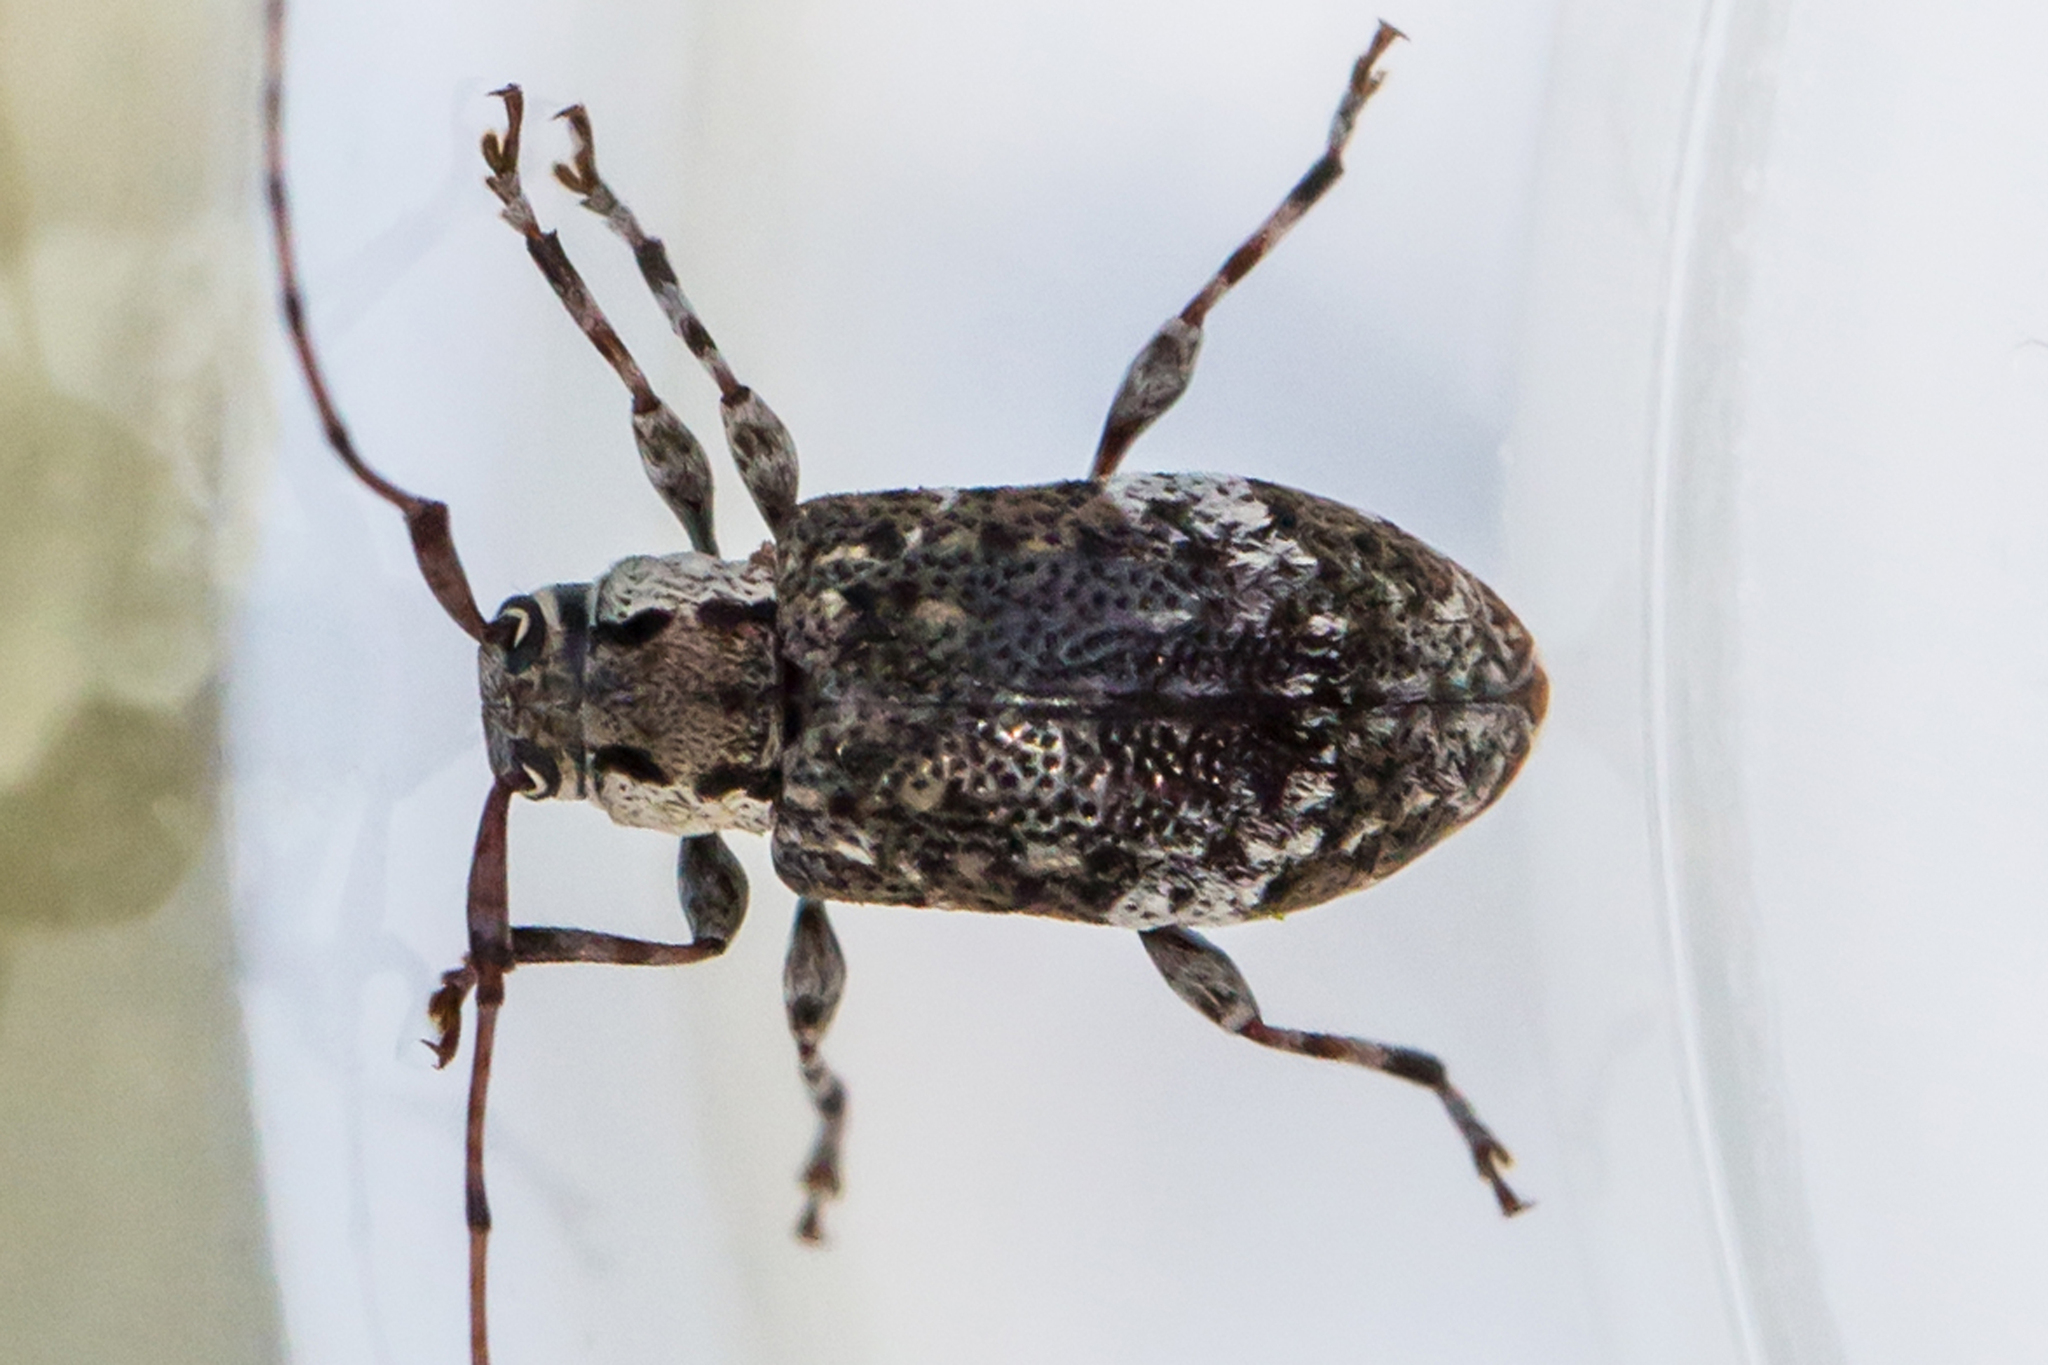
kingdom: Animalia
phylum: Arthropoda
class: Insecta
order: Coleoptera
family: Cerambycidae
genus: Astylopsis
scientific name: Astylopsis macula
